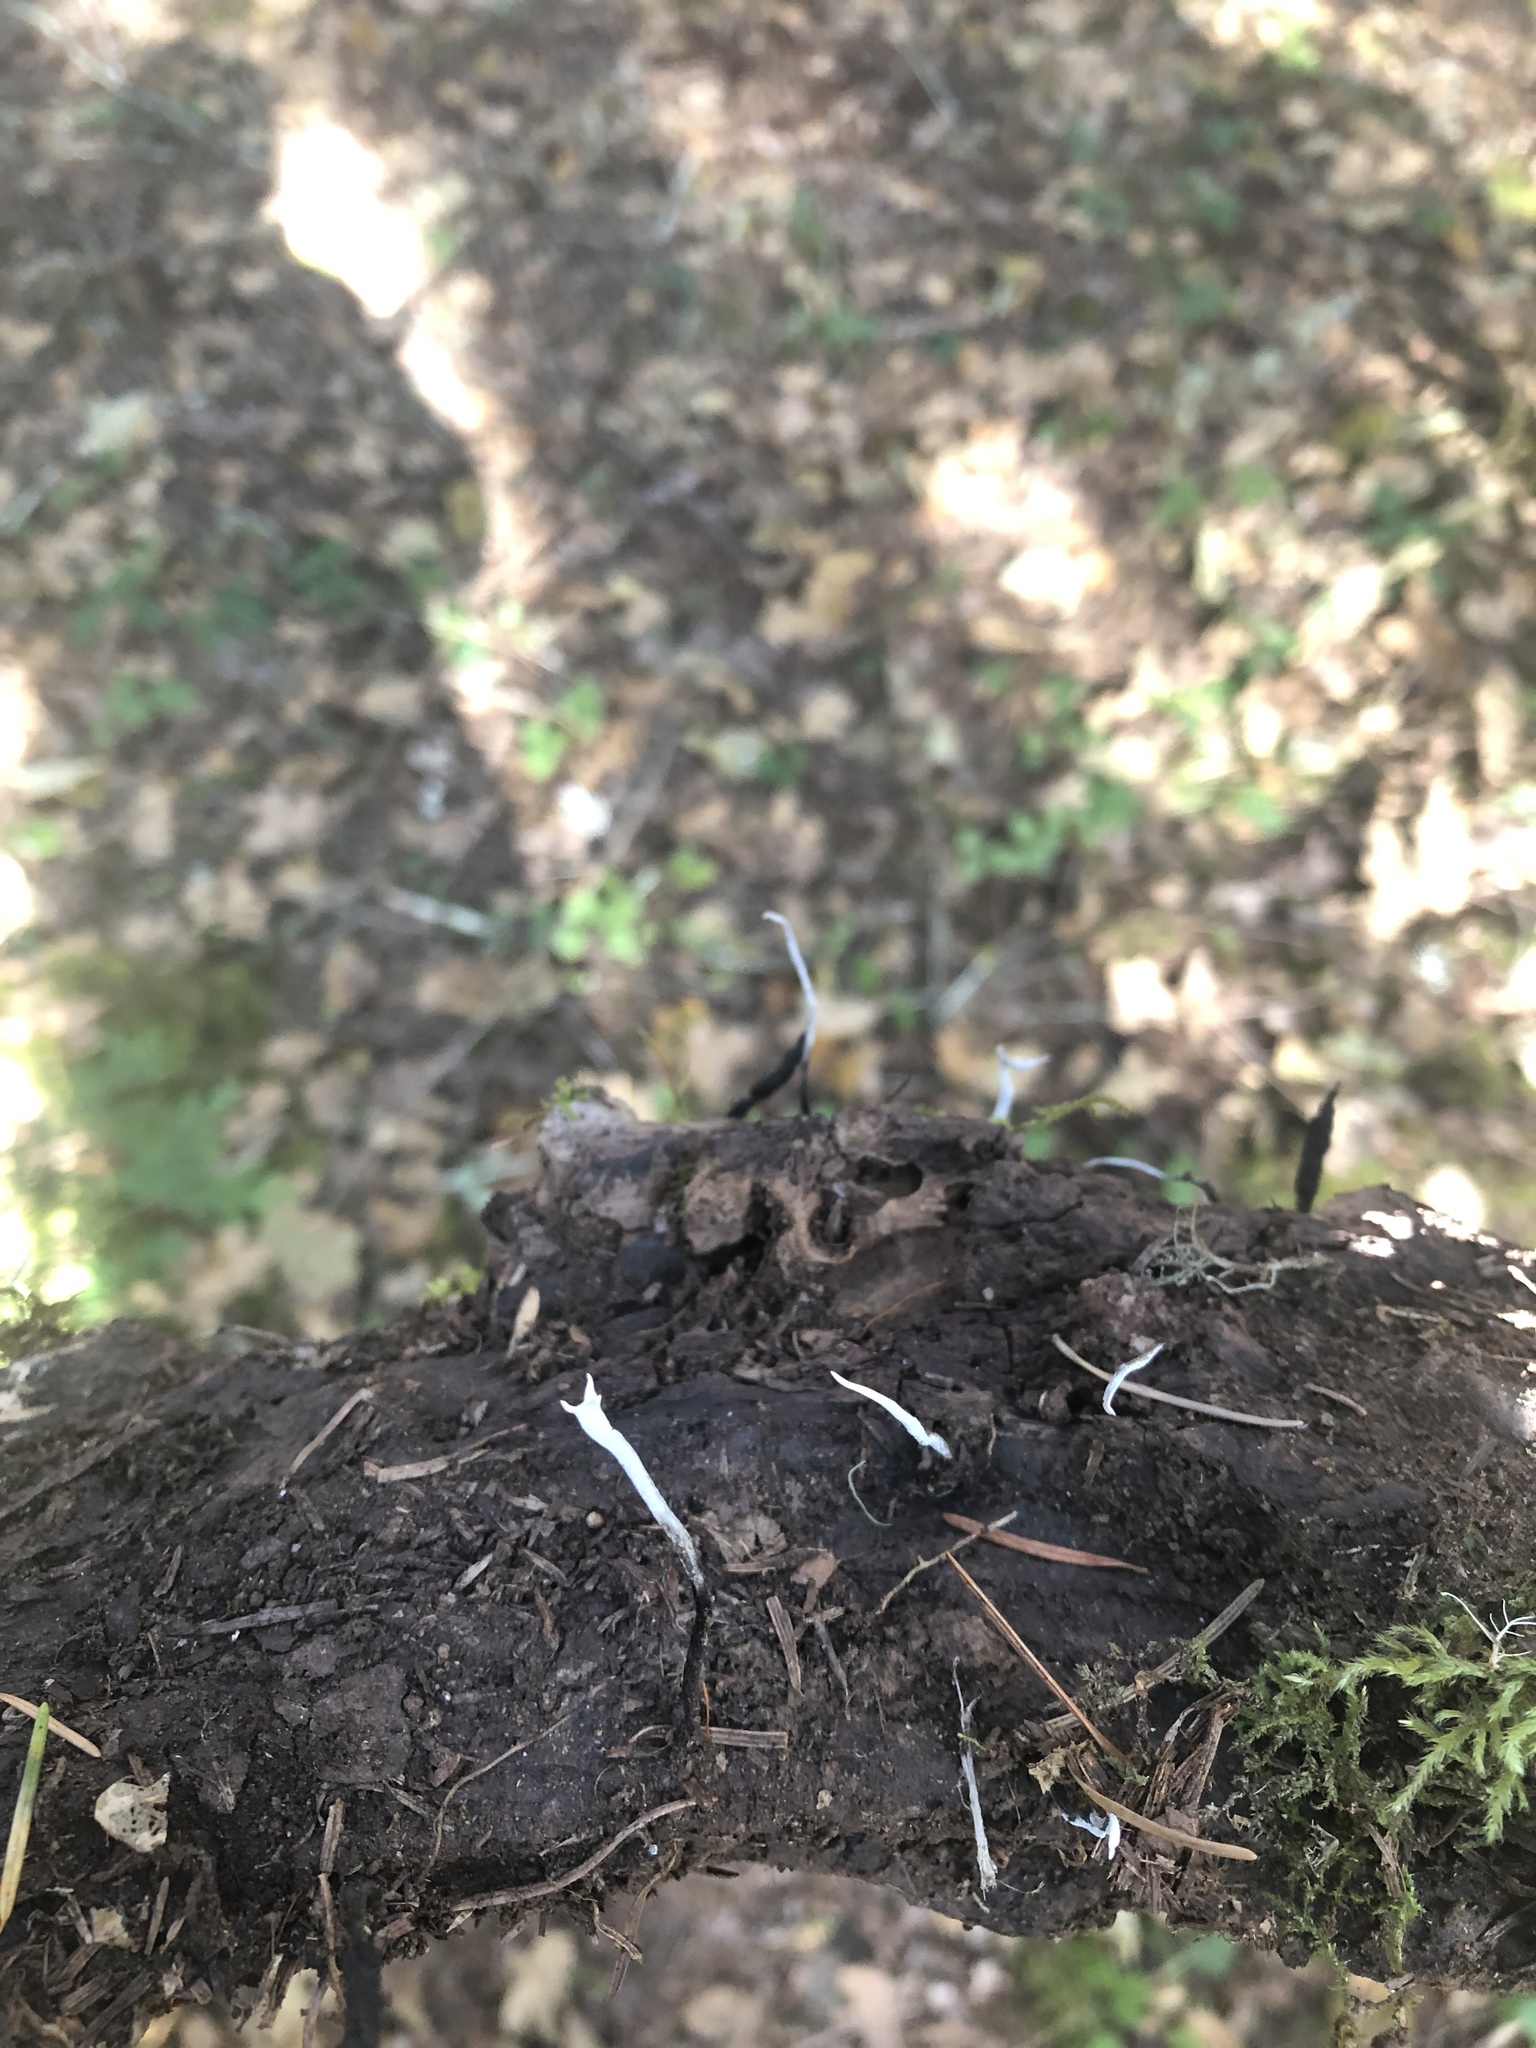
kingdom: Fungi
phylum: Ascomycota
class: Sordariomycetes
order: Xylariales
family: Xylariaceae
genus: Xylaria
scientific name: Xylaria hypoxylon
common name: Candle-snuff fungus
